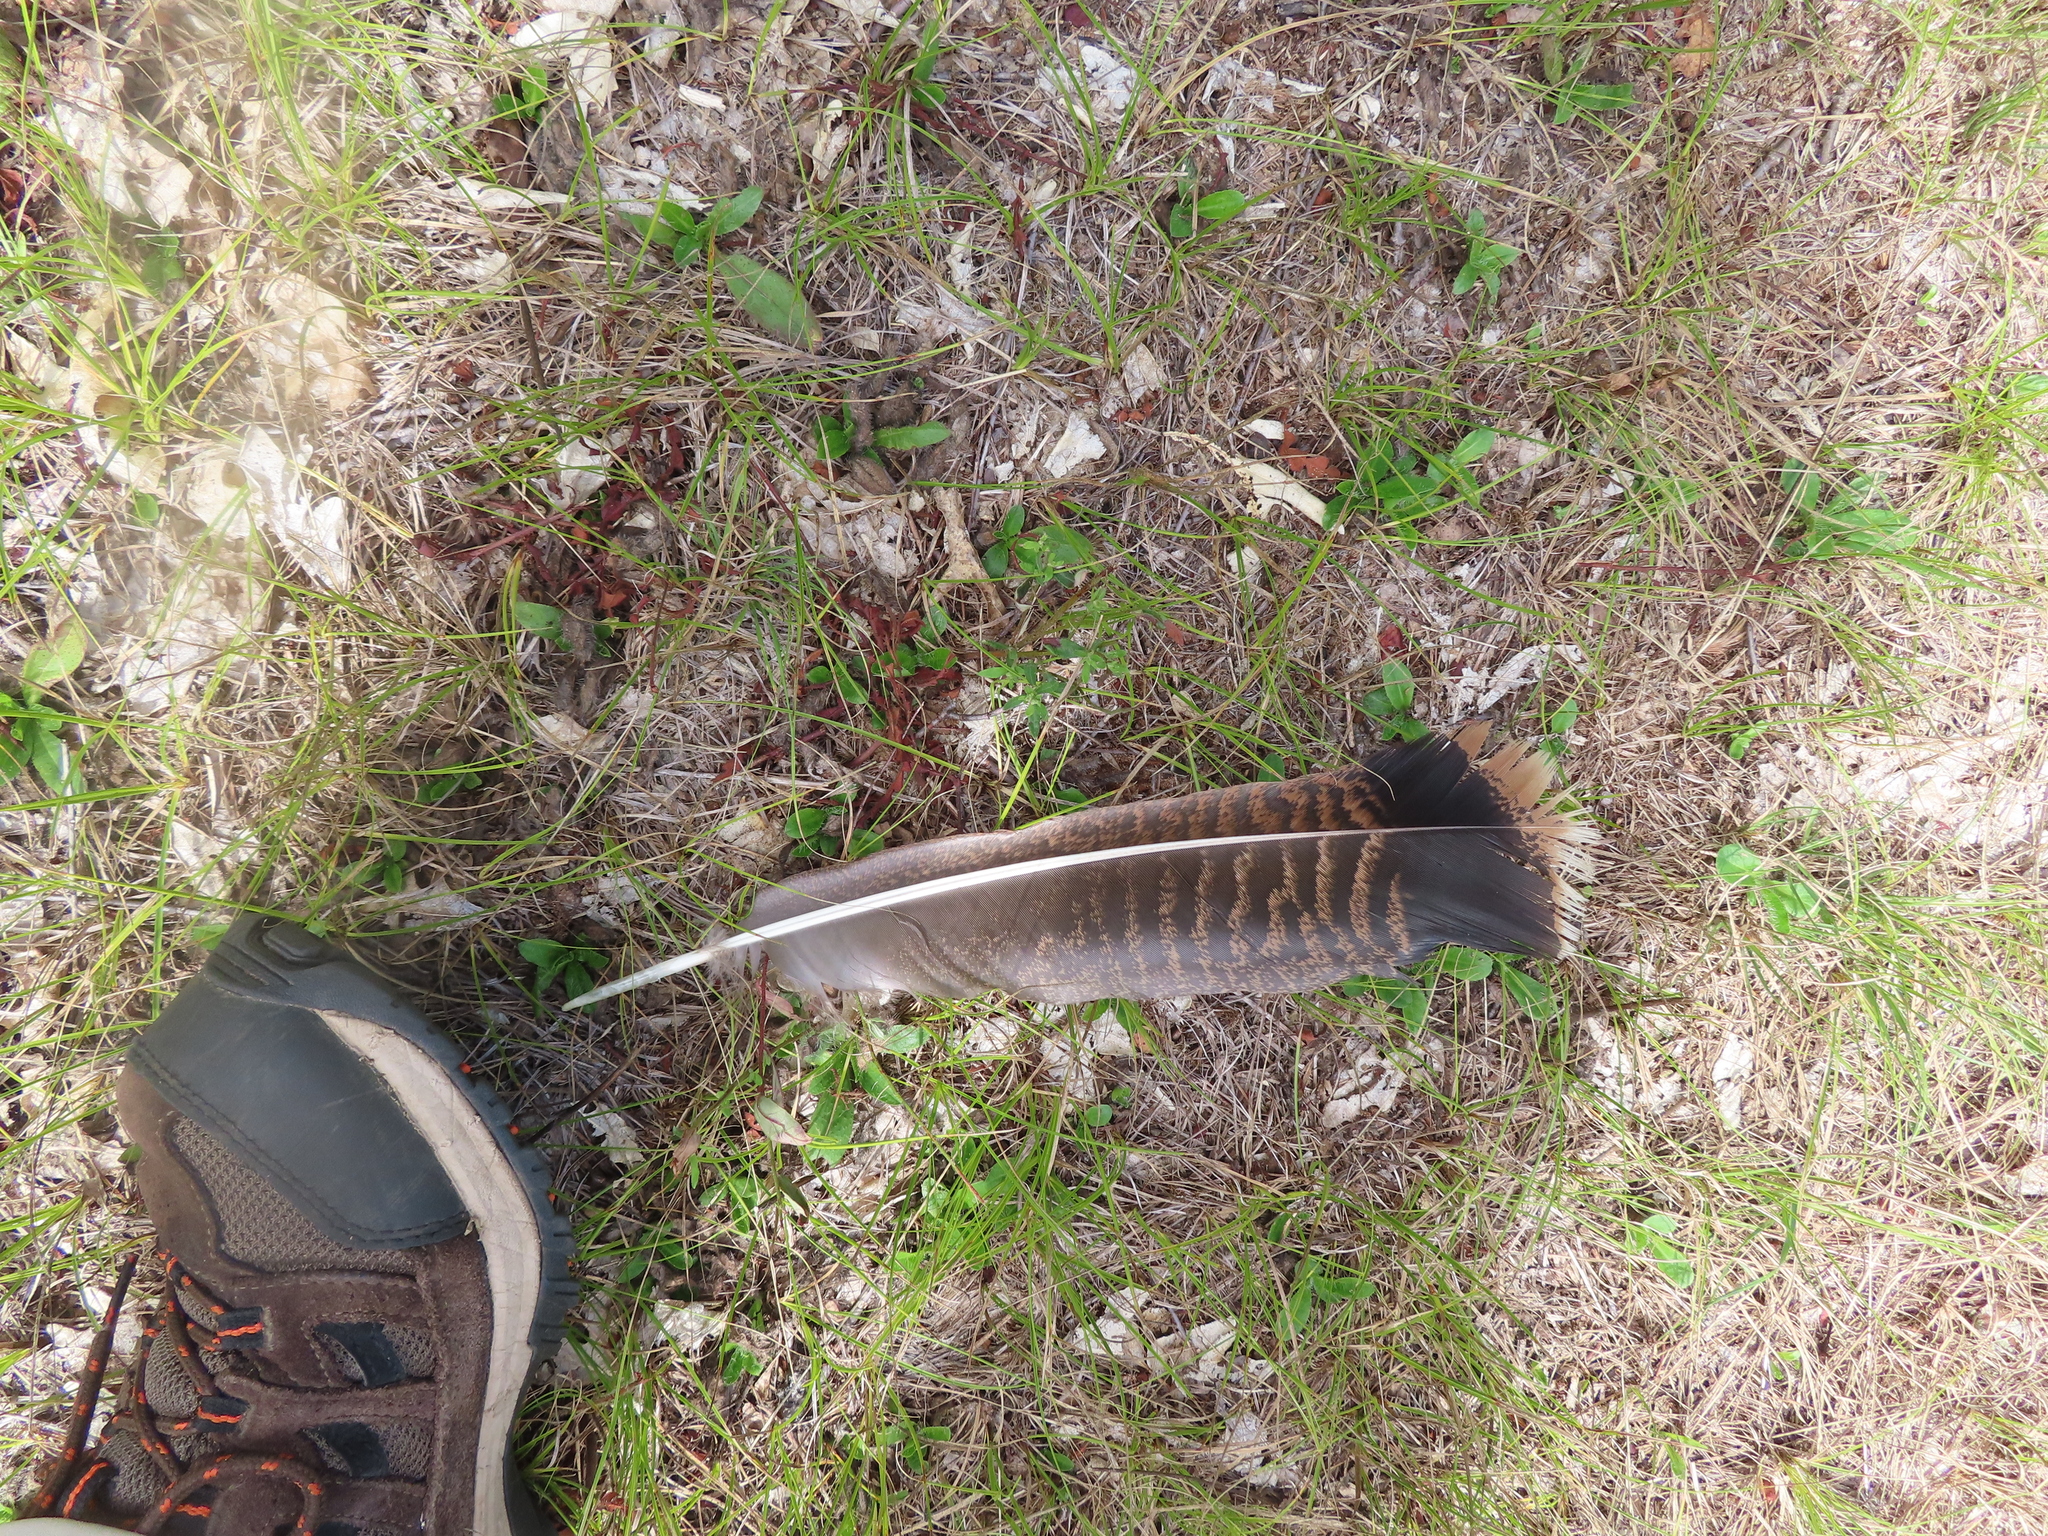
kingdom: Animalia
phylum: Chordata
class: Aves
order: Galliformes
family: Phasianidae
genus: Meleagris
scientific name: Meleagris gallopavo
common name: Wild turkey
